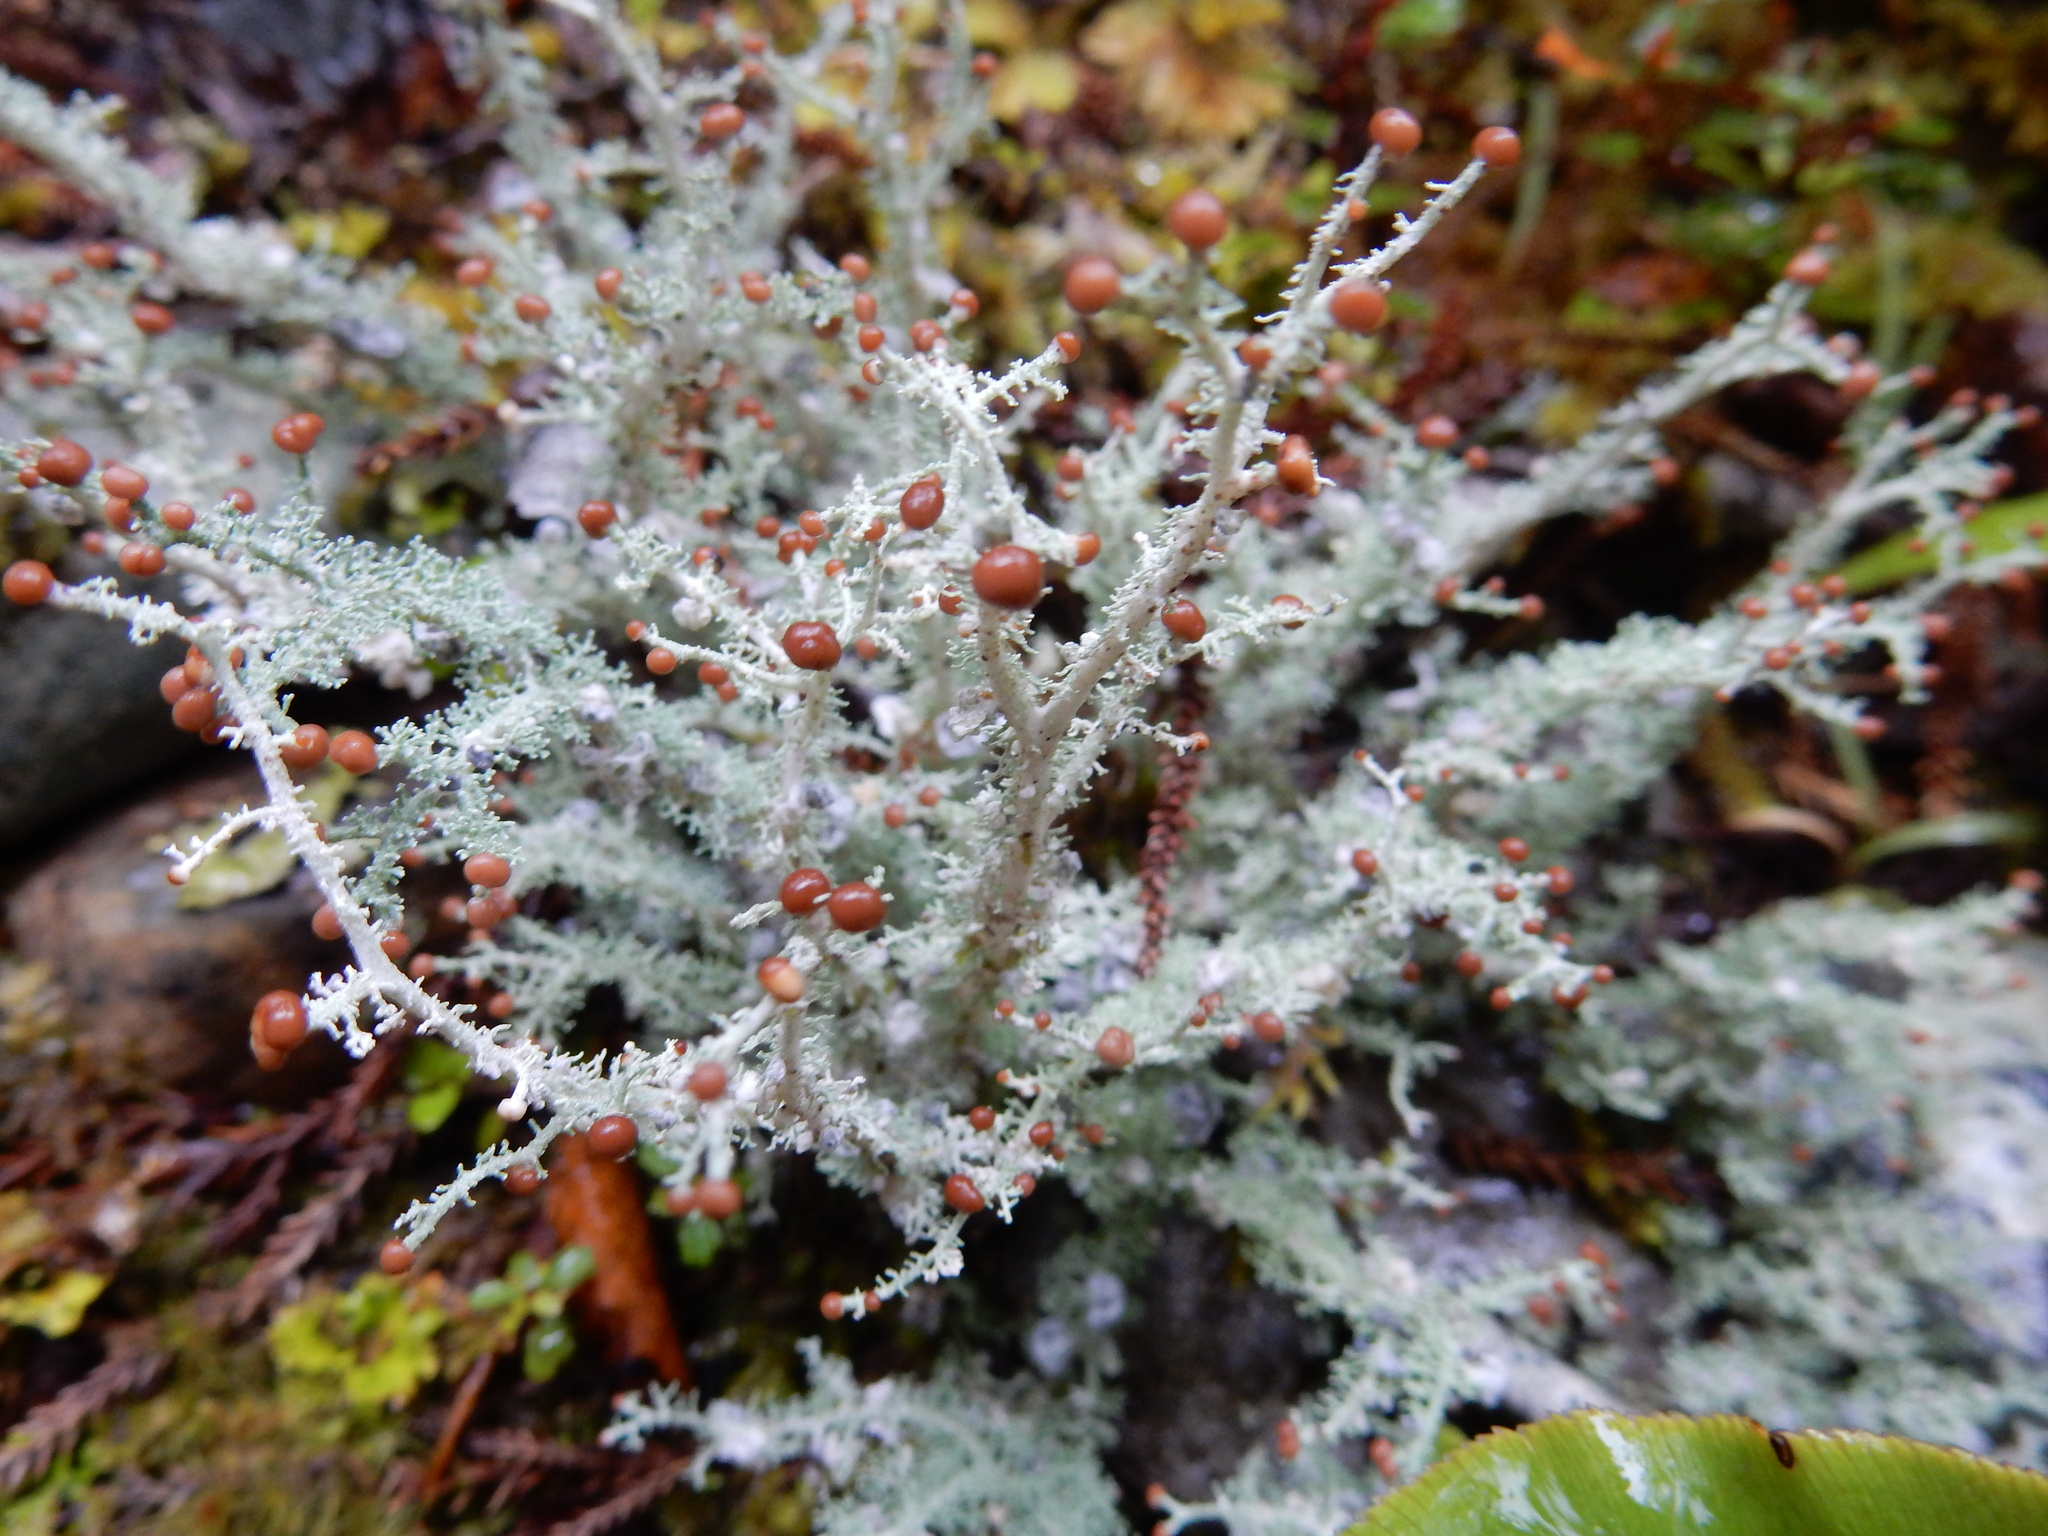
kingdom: Fungi
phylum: Ascomycota
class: Lecanoromycetes
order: Lecanorales
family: Stereocaulaceae
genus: Stereocaulon
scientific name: Stereocaulon ramulosum
